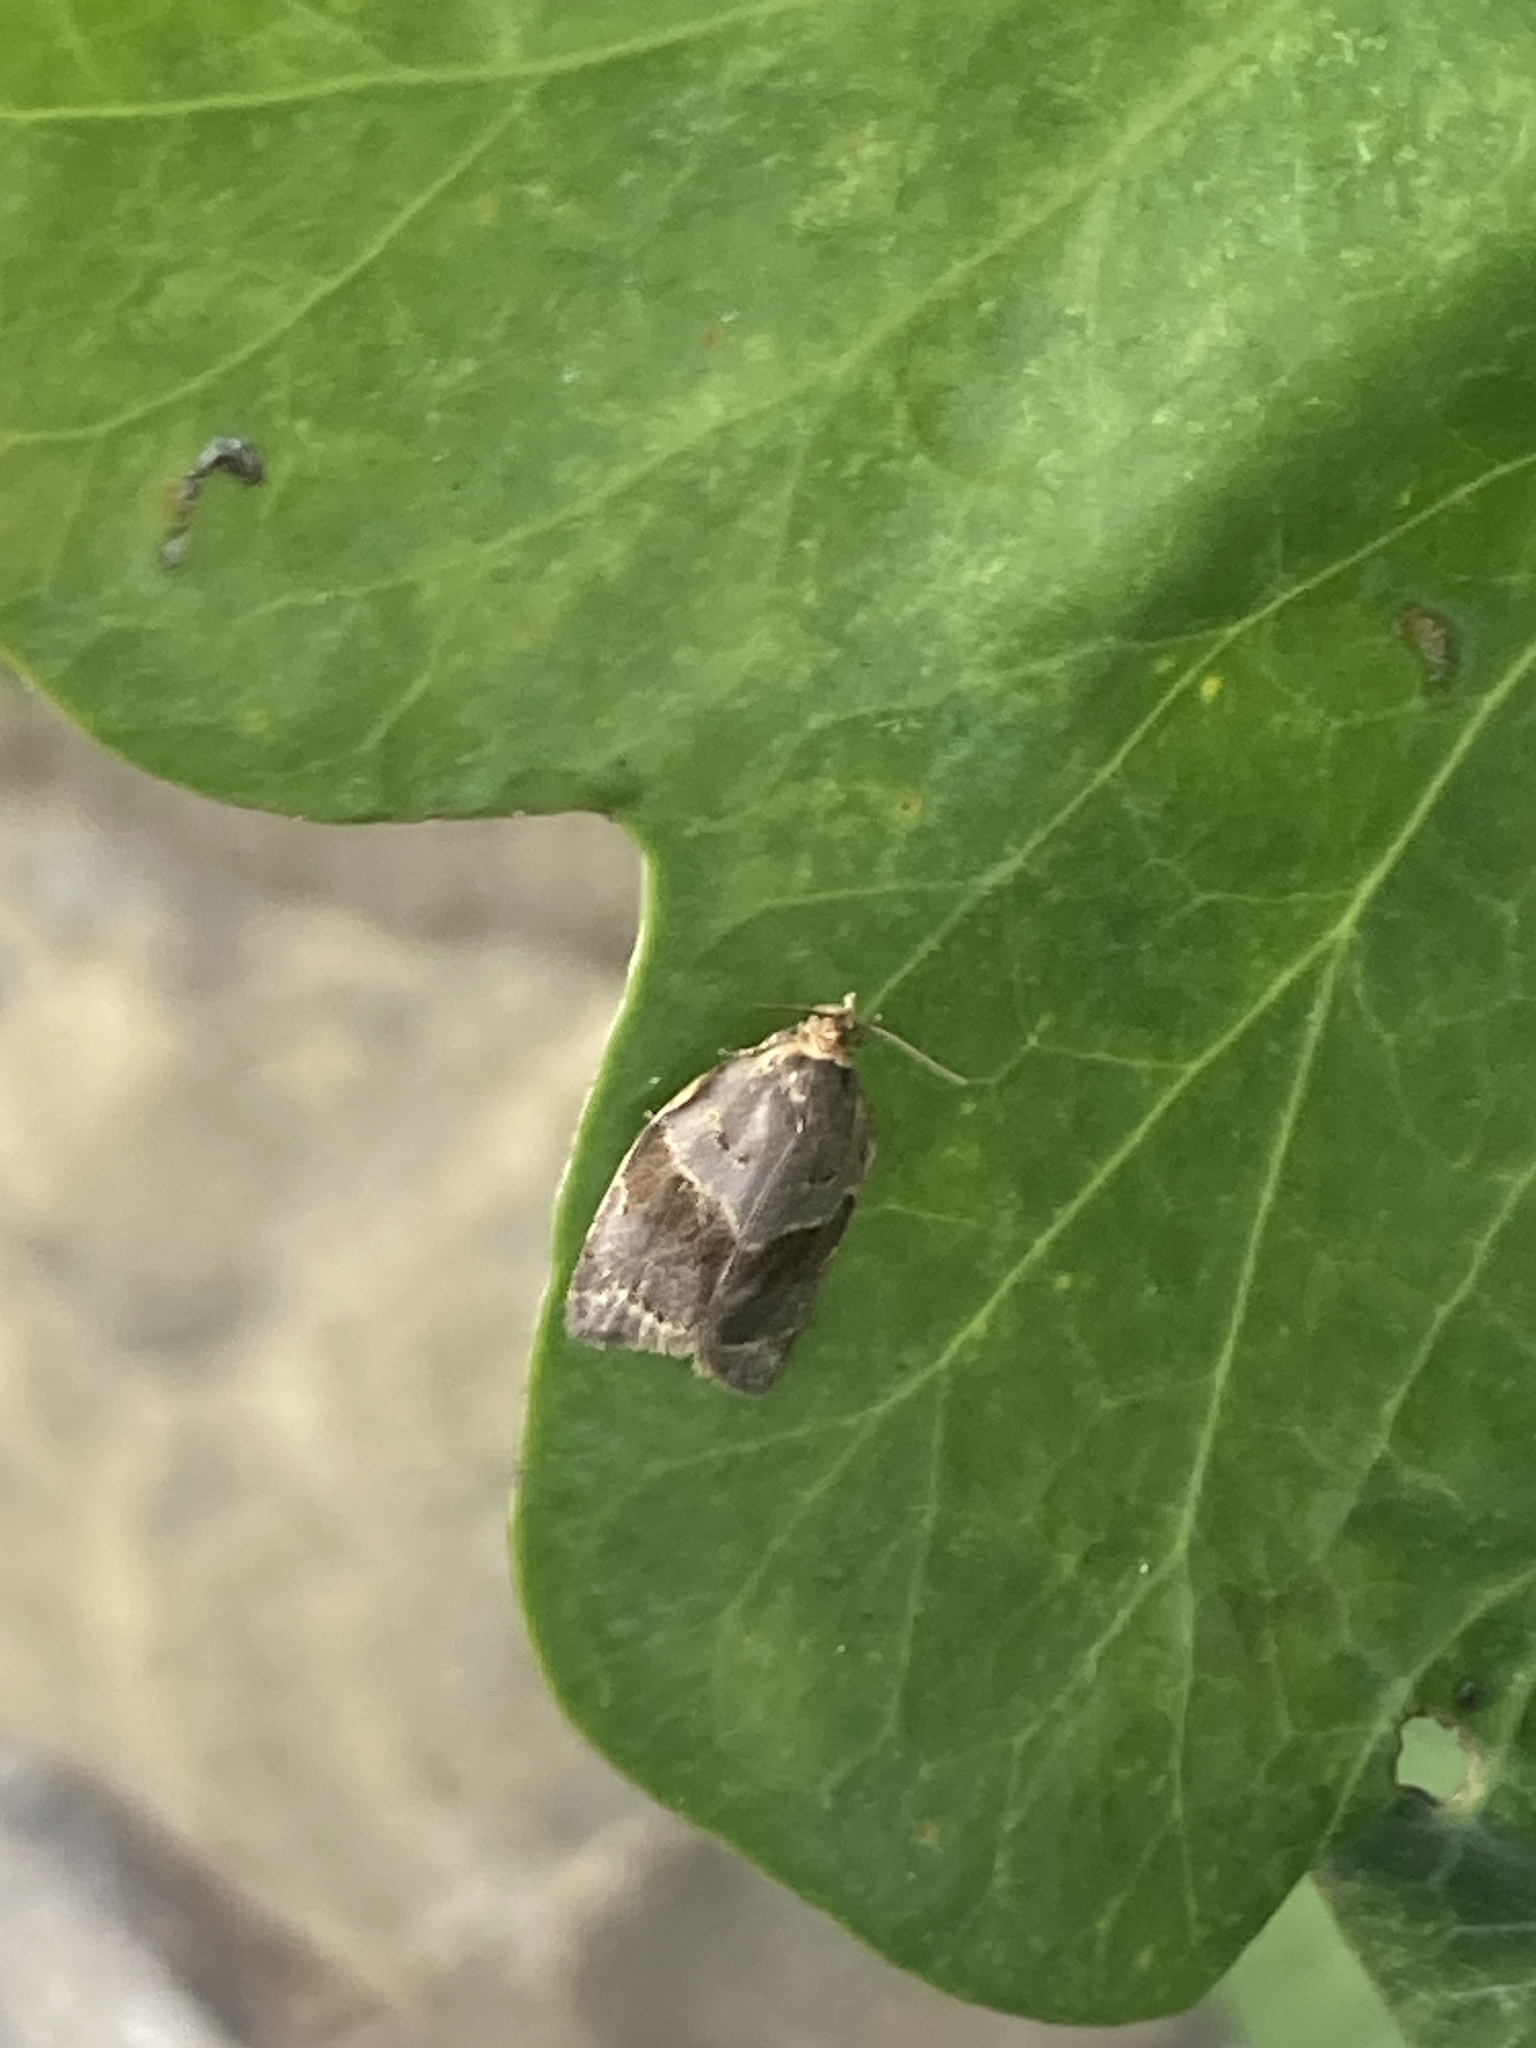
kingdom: Animalia
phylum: Arthropoda
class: Insecta
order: Lepidoptera
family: Tortricidae
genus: Clepsis
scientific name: Clepsis dumicolana
